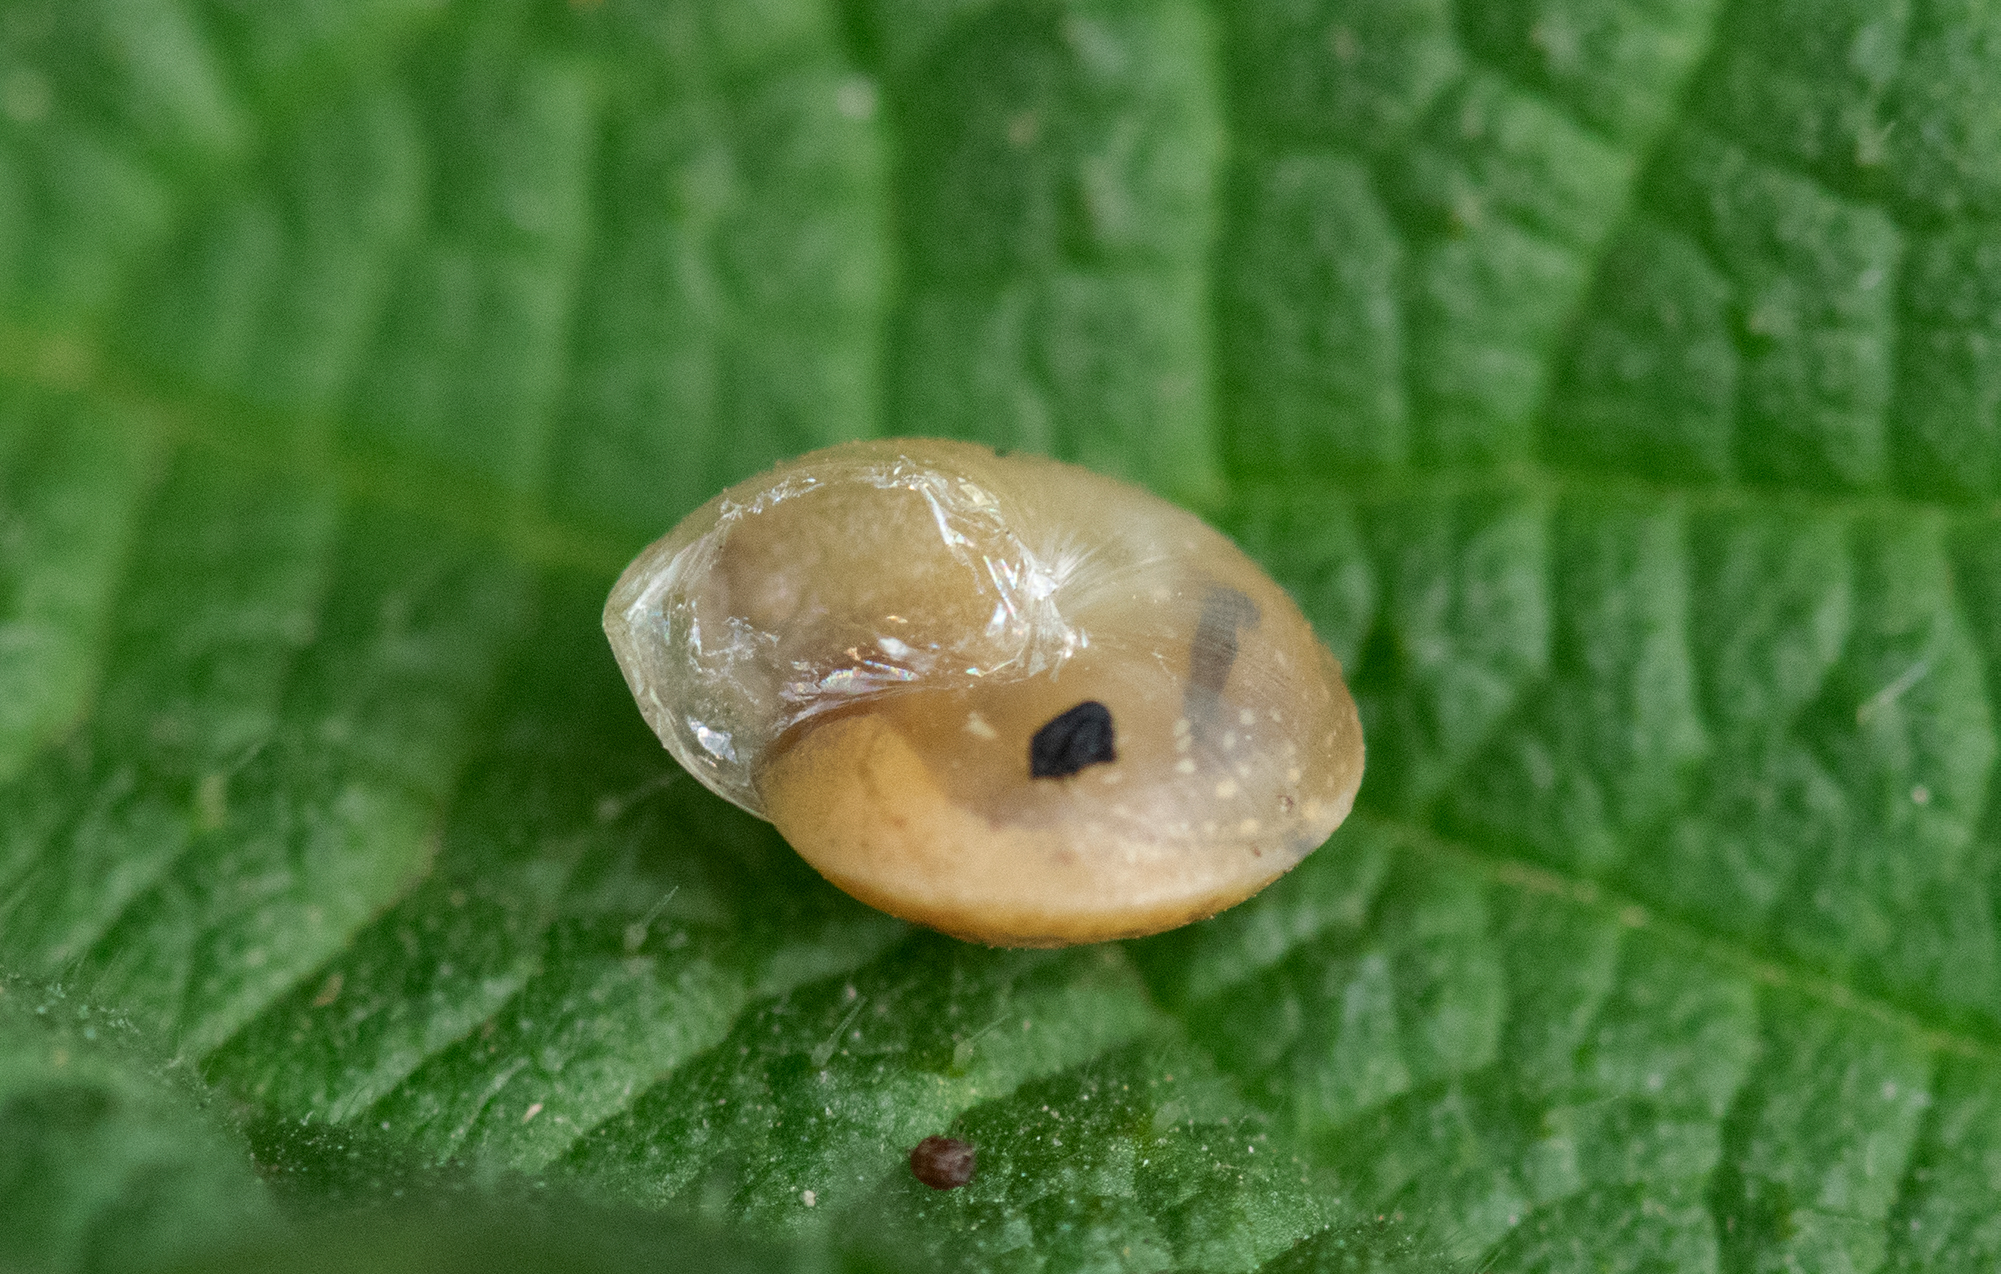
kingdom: Animalia
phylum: Mollusca
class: Gastropoda
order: Stylommatophora
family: Hygromiidae
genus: Hygromia
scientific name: Hygromia cinctella
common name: Girdled snail
